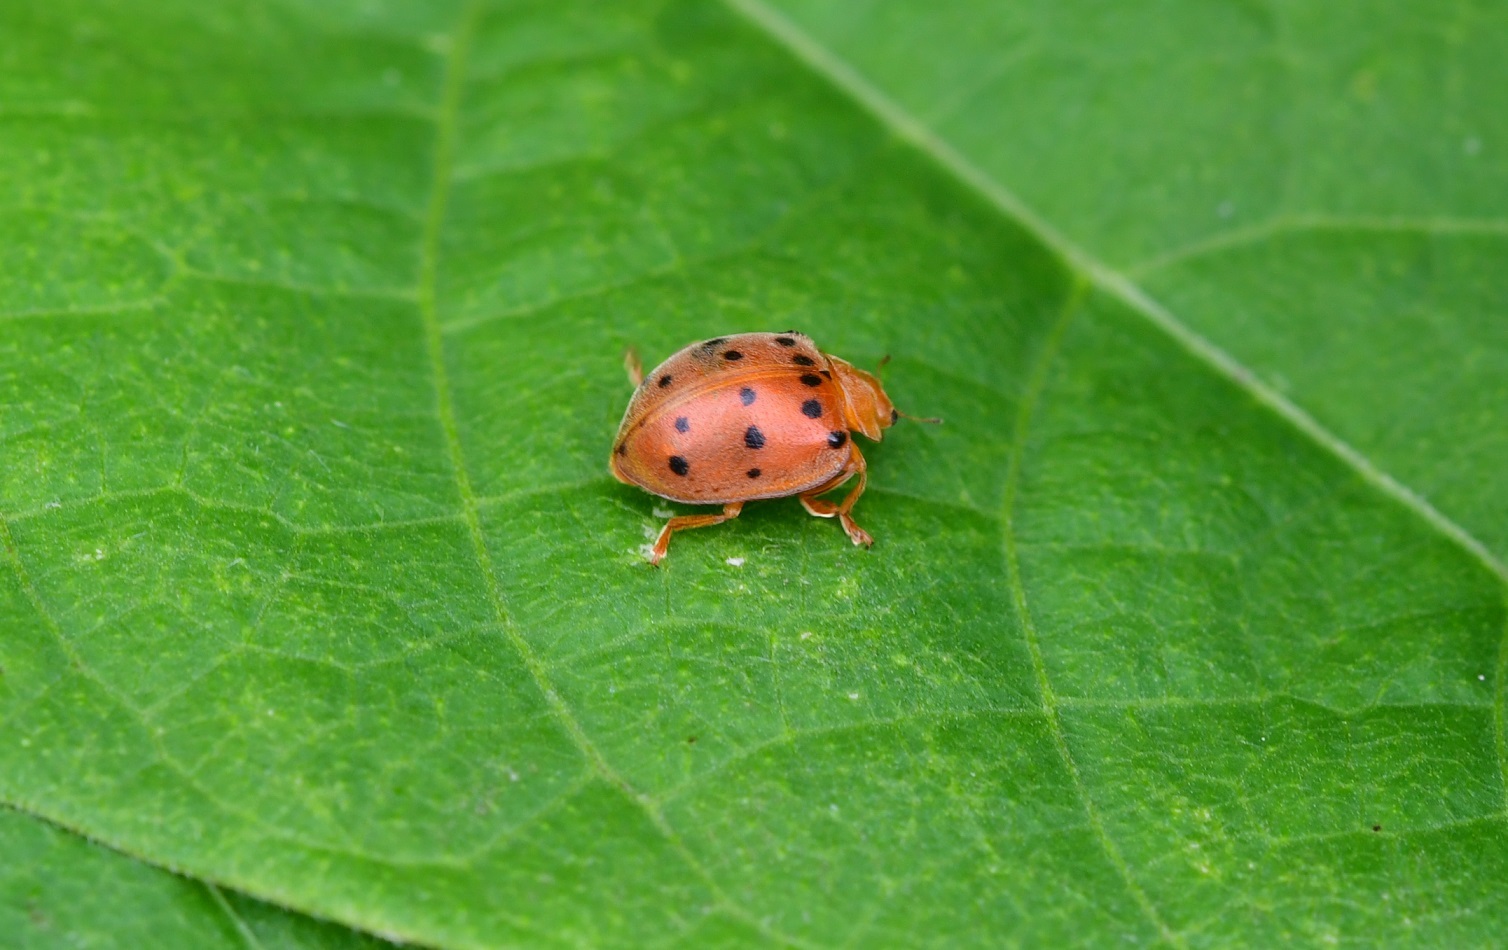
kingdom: Animalia
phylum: Arthropoda
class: Insecta
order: Coleoptera
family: Coccinellidae
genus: Epilachna
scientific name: Epilachna varivestis
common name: Ladybird beetle
